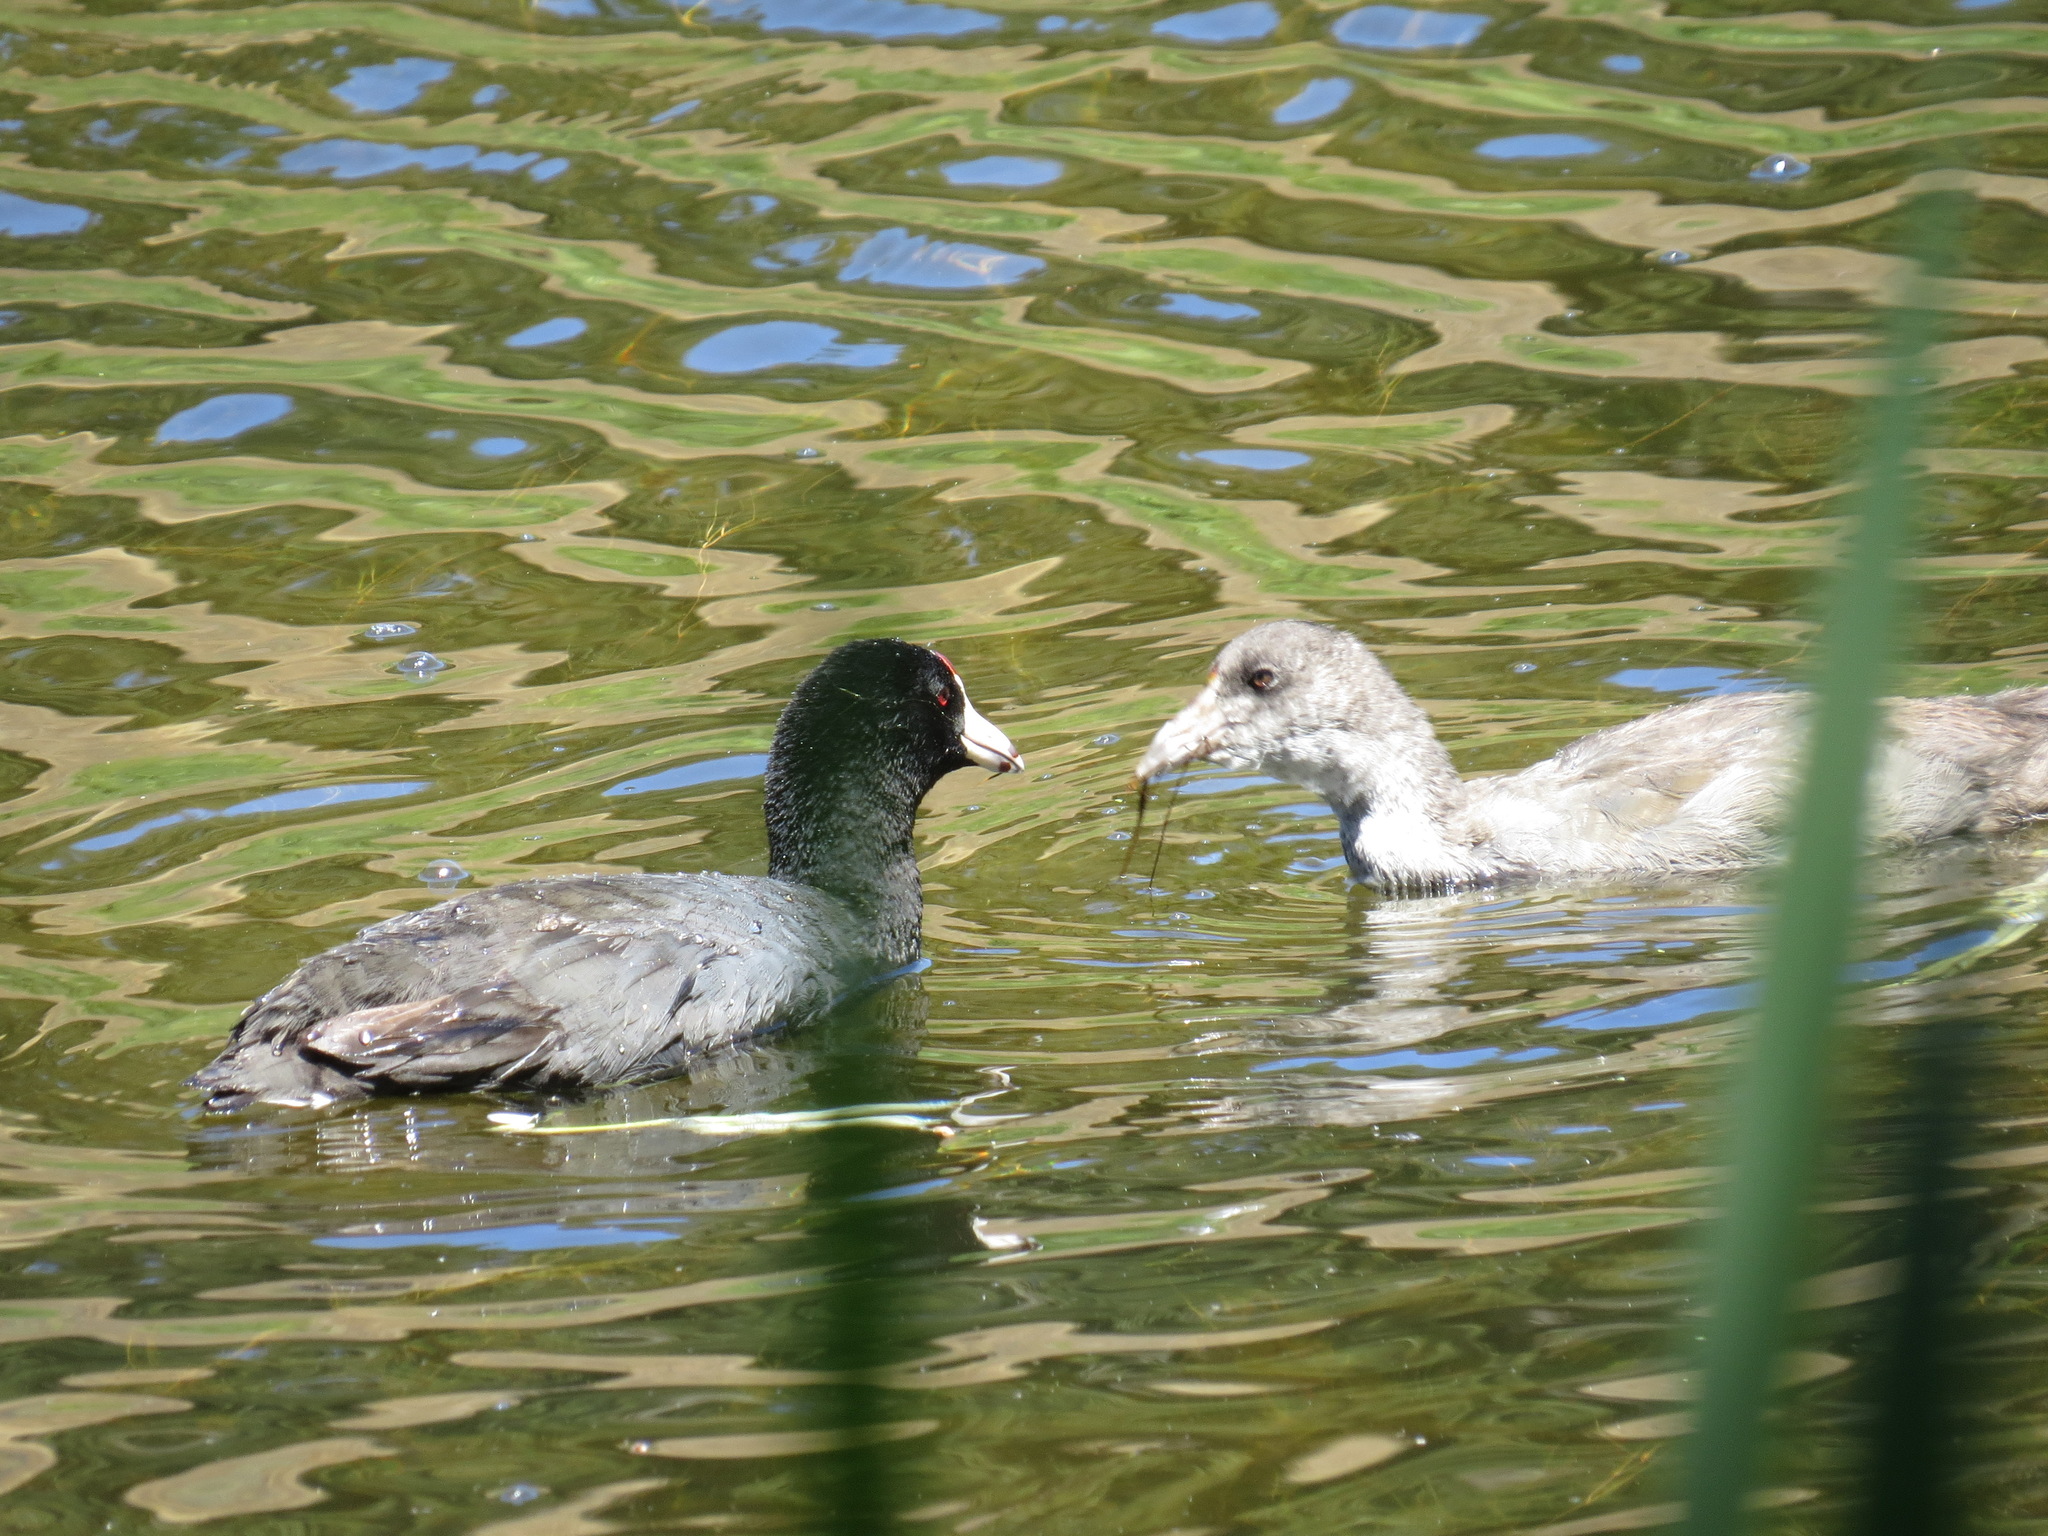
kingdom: Animalia
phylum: Chordata
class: Aves
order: Gruiformes
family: Rallidae
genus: Fulica
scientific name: Fulica americana
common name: American coot
